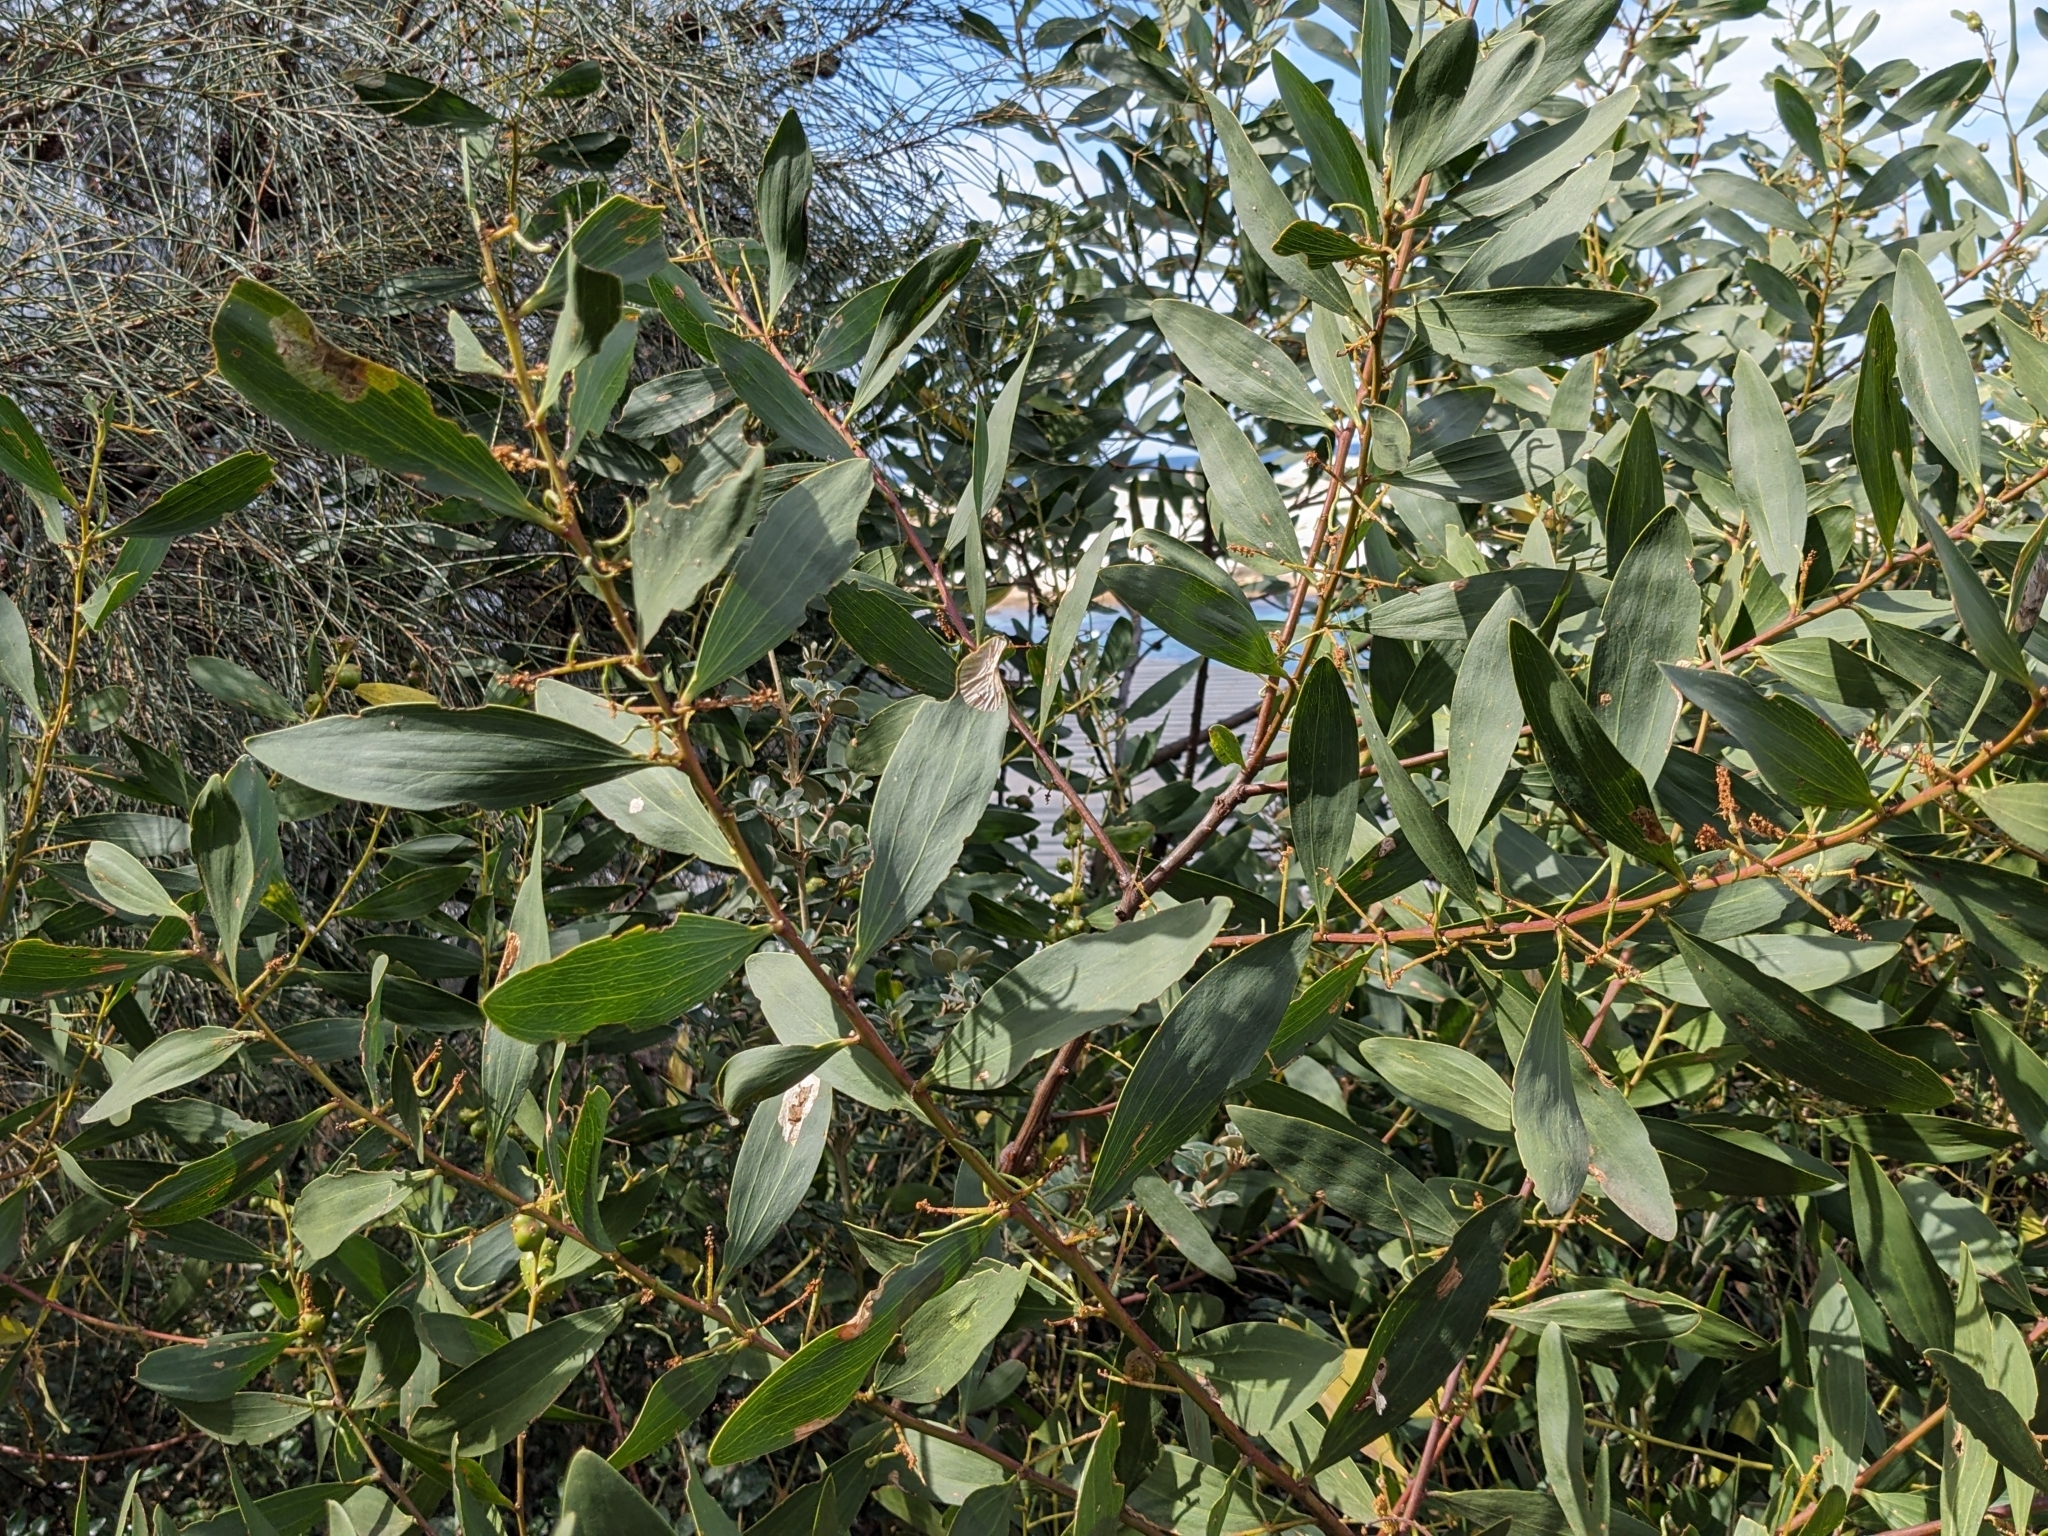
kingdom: Plantae
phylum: Tracheophyta
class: Magnoliopsida
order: Fabales
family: Fabaceae
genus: Acacia
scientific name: Acacia longifolia
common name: Sydney golden wattle
